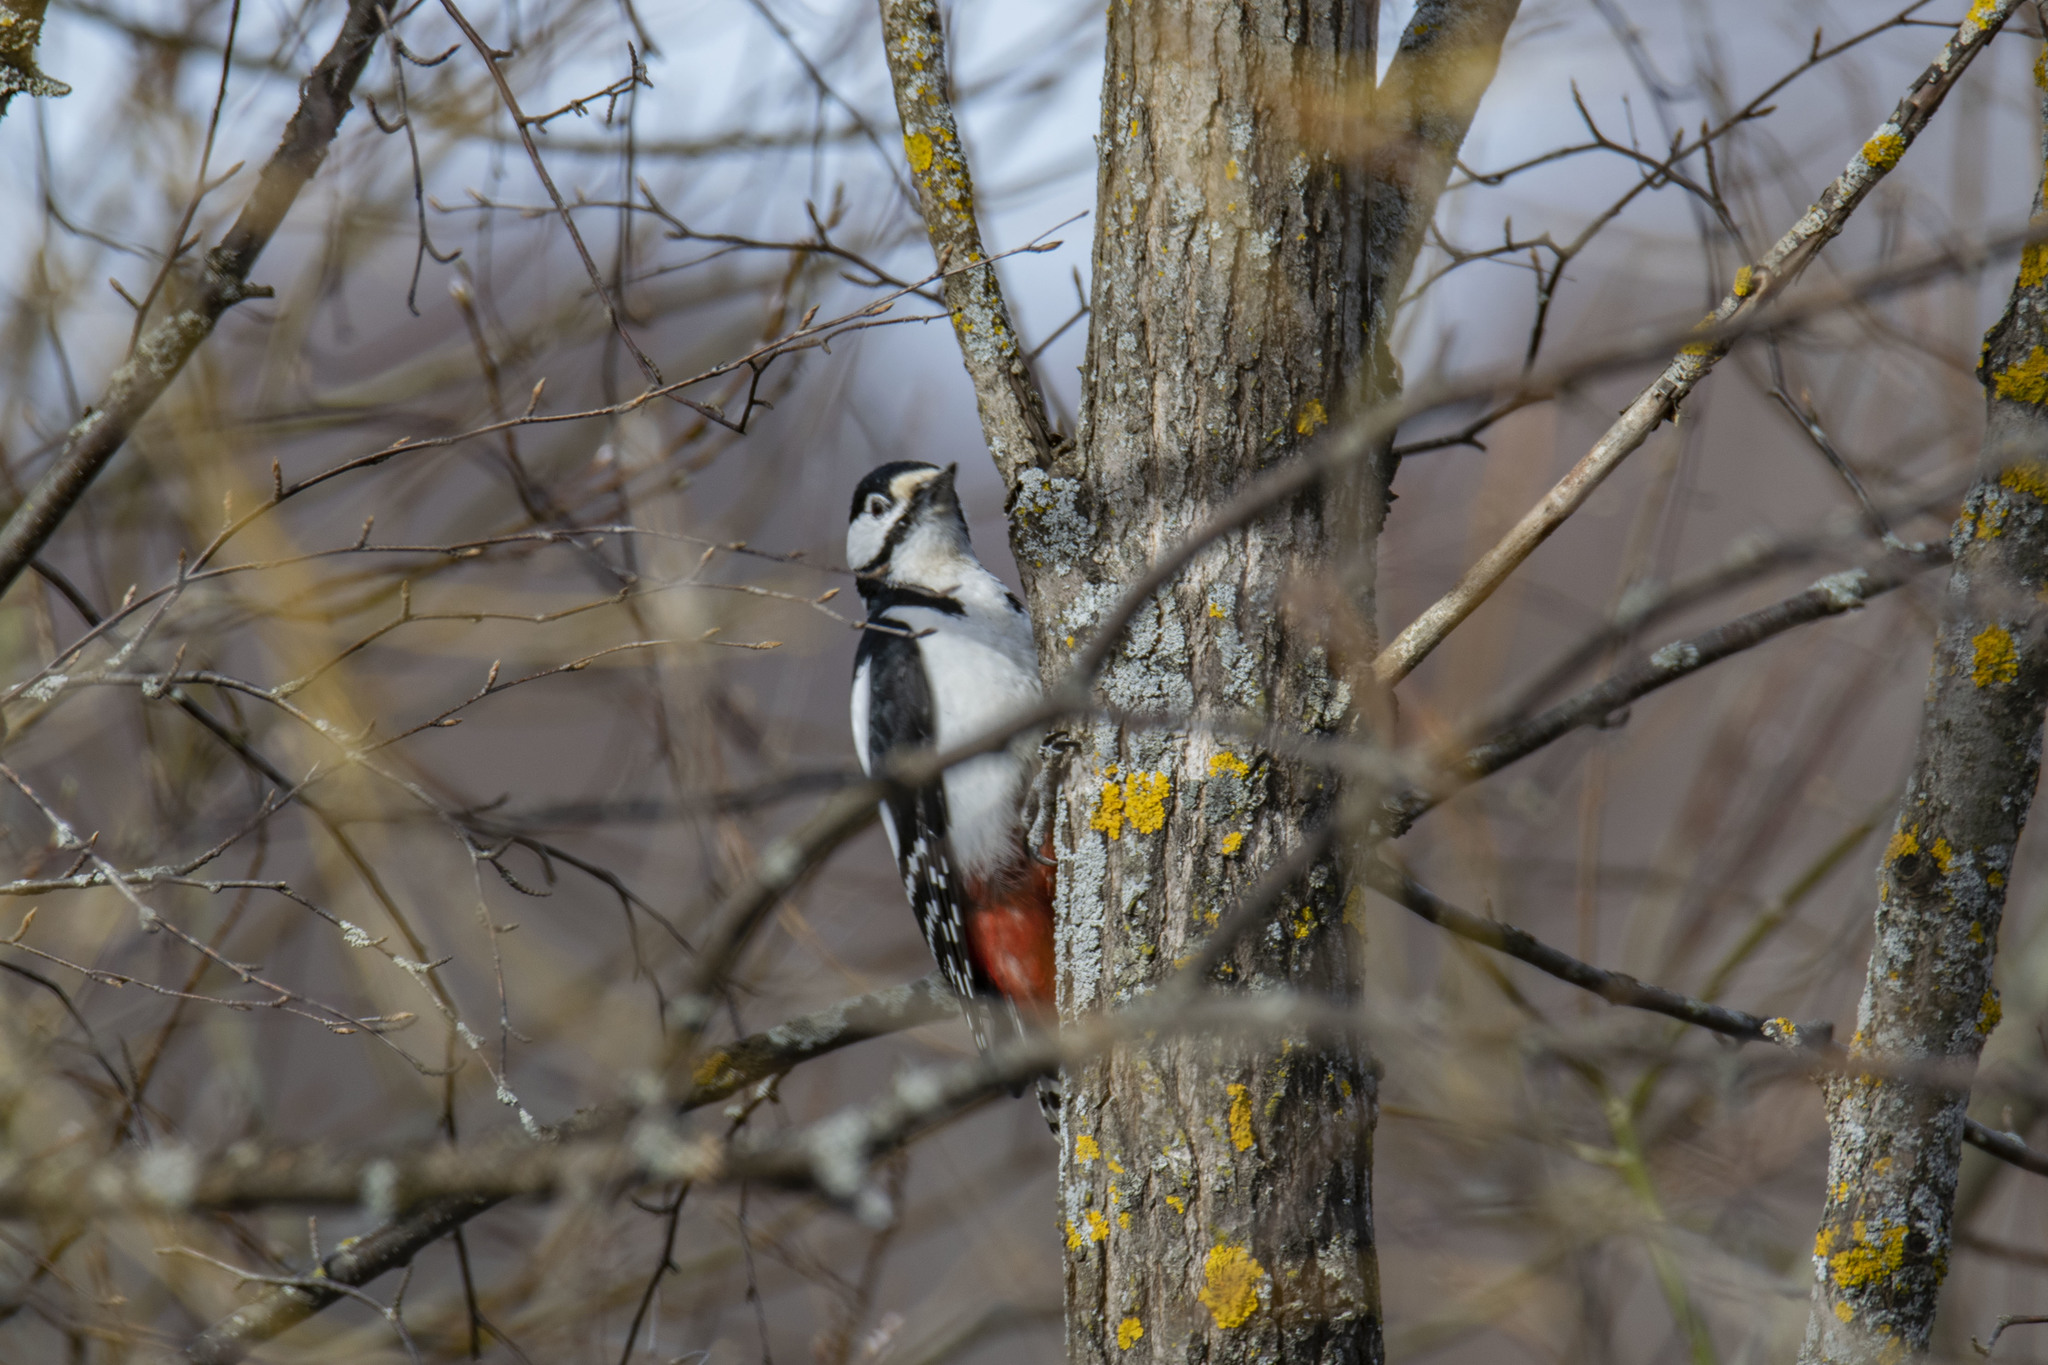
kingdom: Animalia
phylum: Chordata
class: Aves
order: Piciformes
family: Picidae
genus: Dendrocopos
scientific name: Dendrocopos major
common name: Great spotted woodpecker
